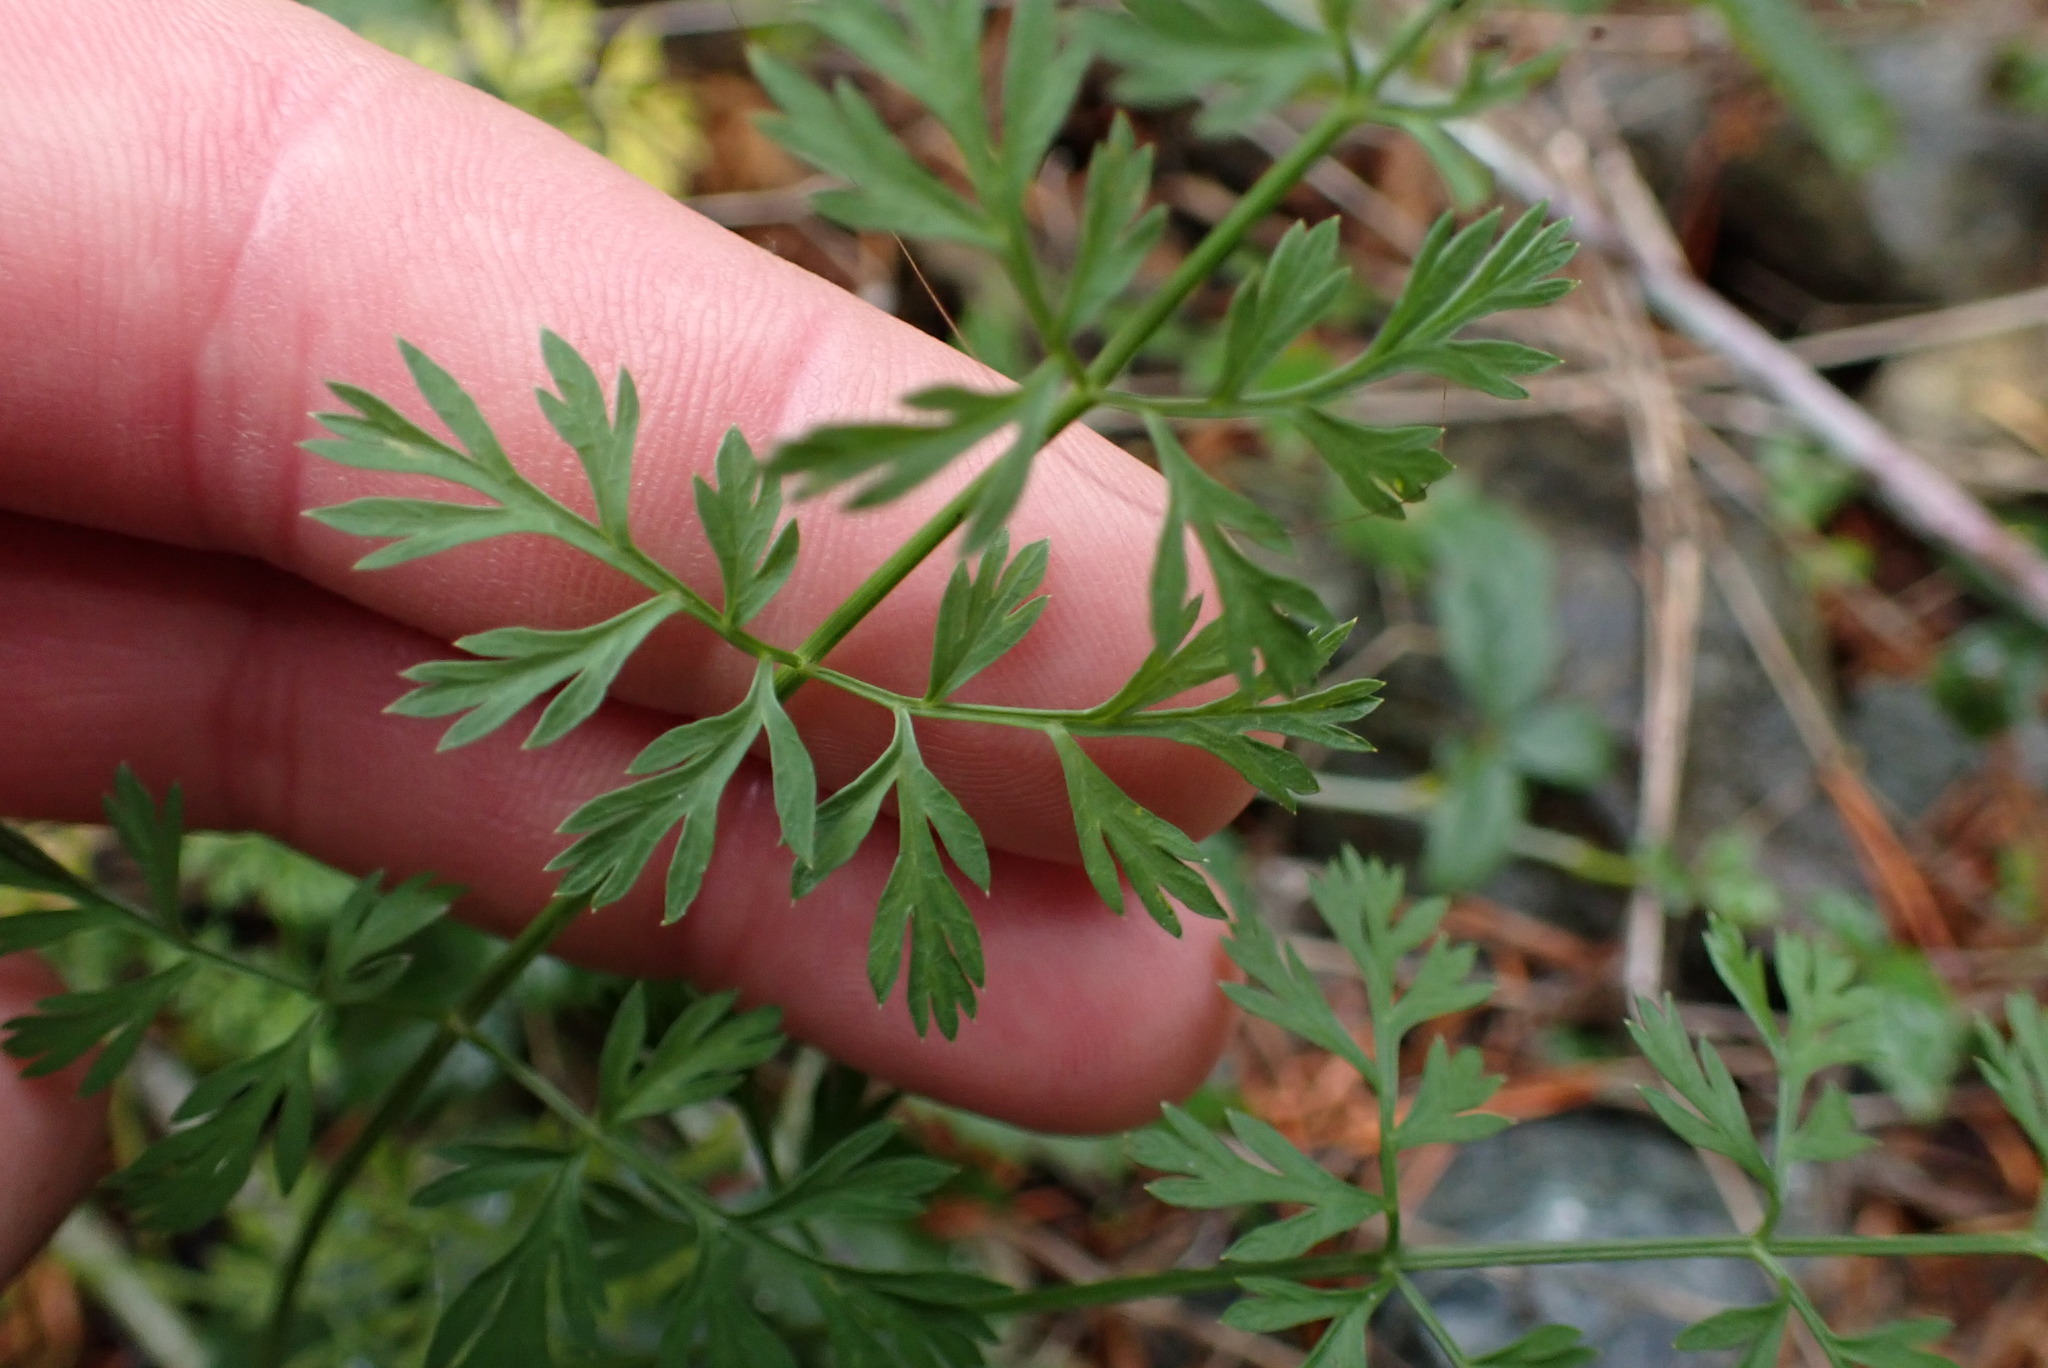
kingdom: Plantae
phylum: Tracheophyta
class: Magnoliopsida
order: Apiales
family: Apiaceae
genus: Daucus
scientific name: Daucus carota
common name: Wild carrot
